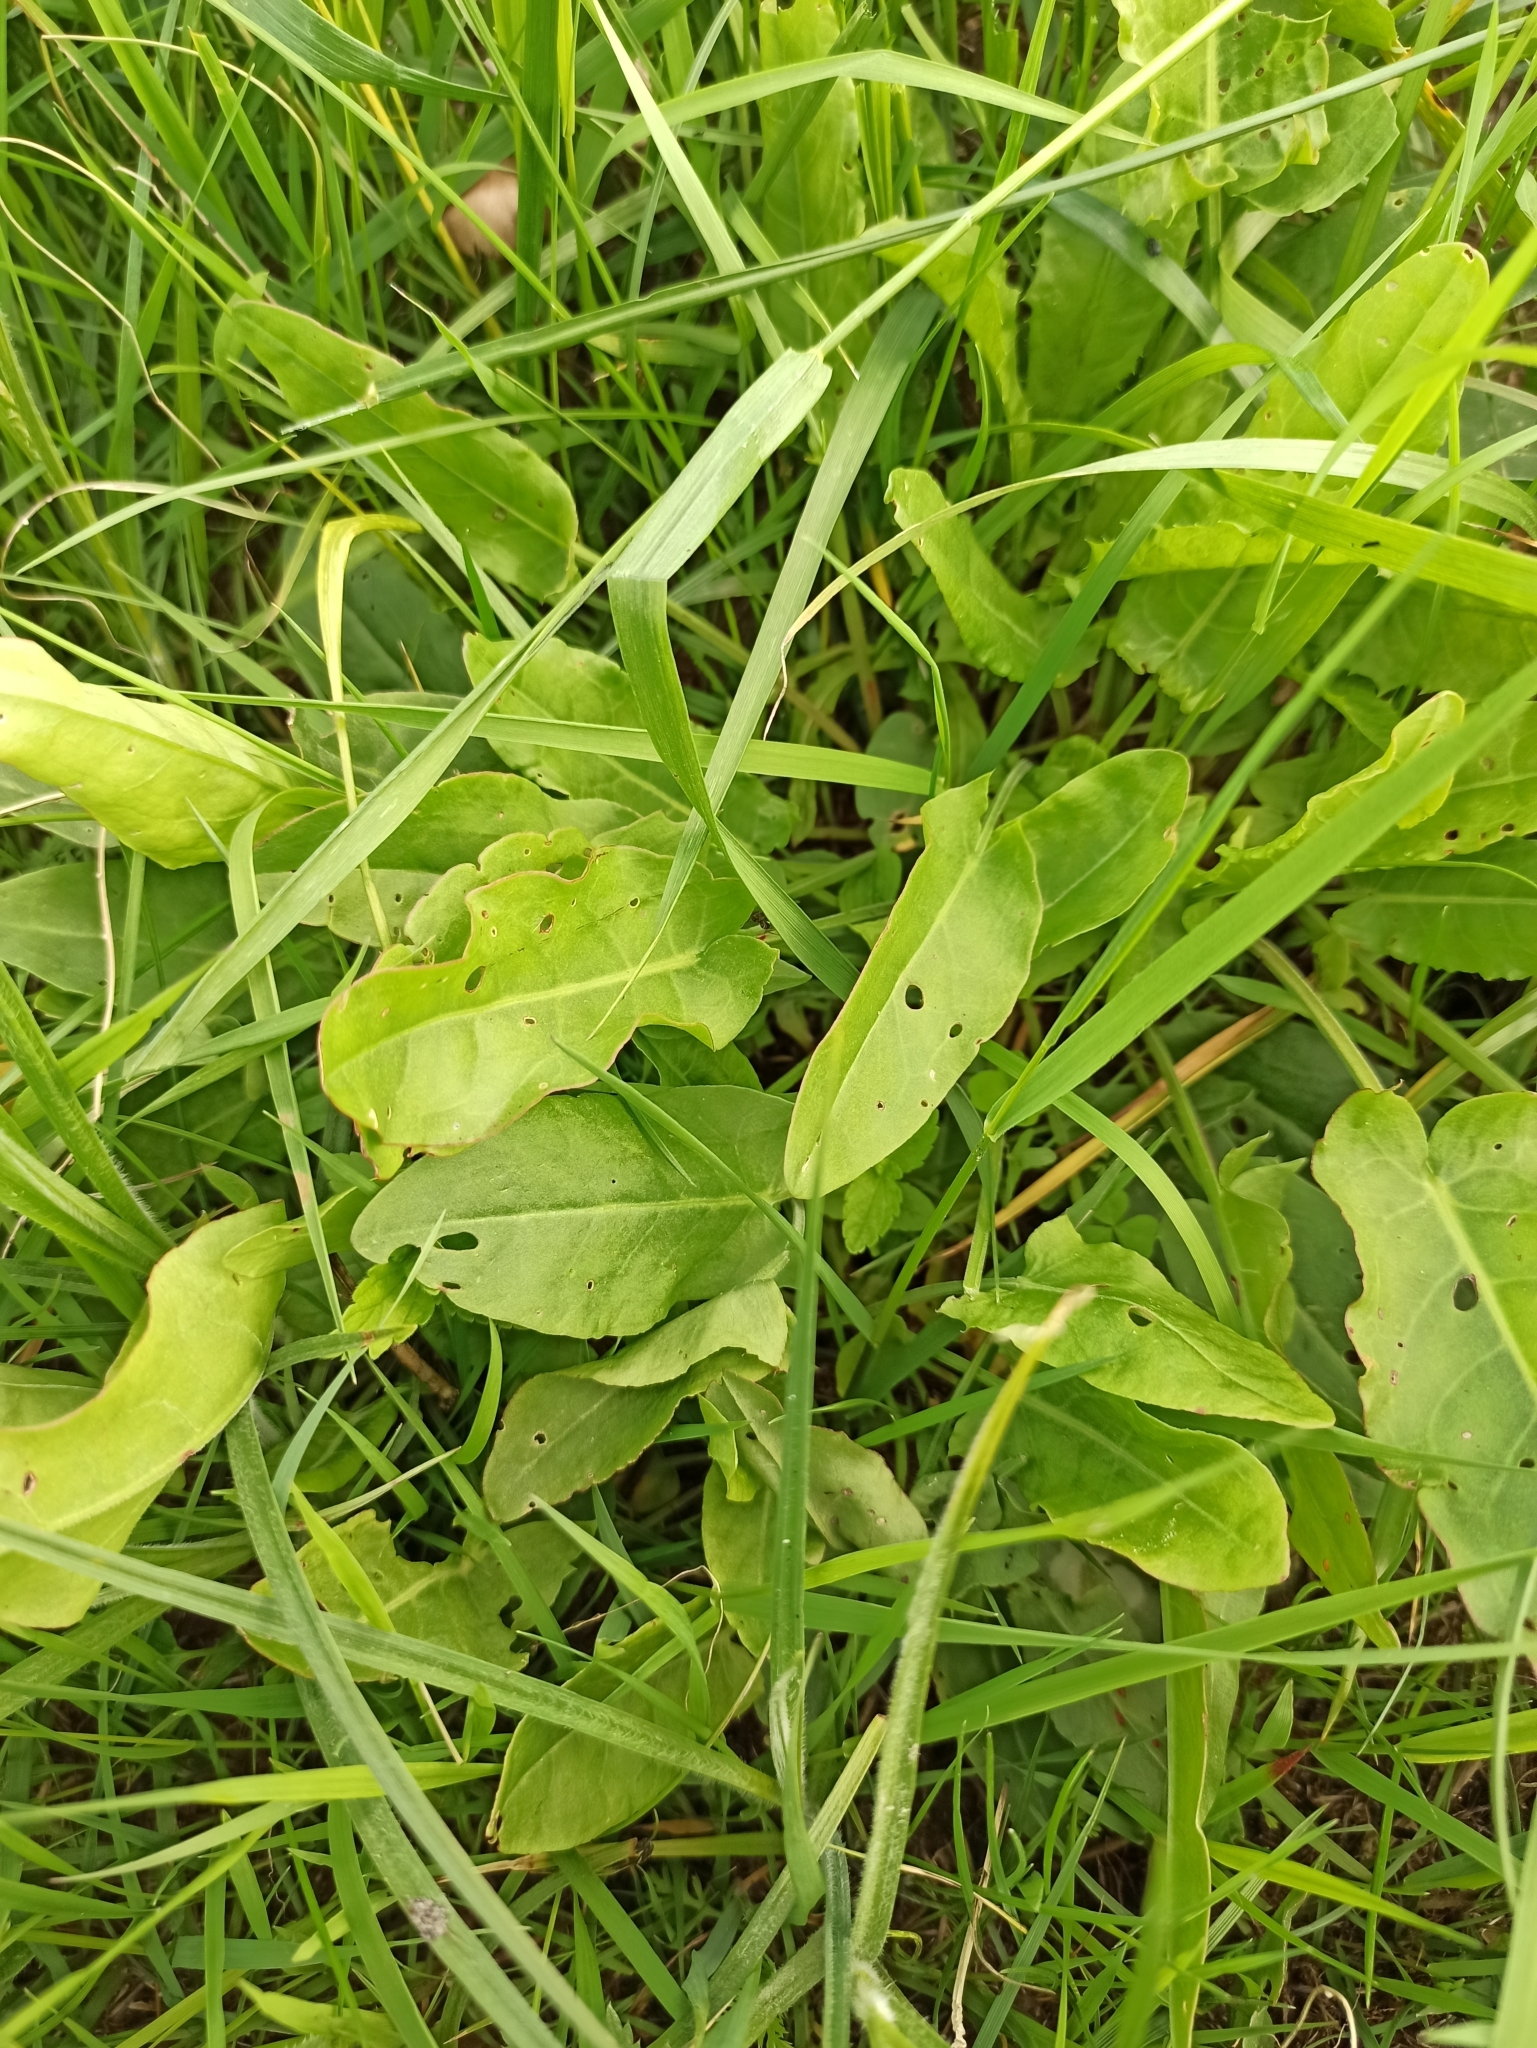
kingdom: Plantae
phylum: Tracheophyta
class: Magnoliopsida
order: Caryophyllales
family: Polygonaceae
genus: Rumex
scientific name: Rumex acetosa
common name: Garden sorrel
